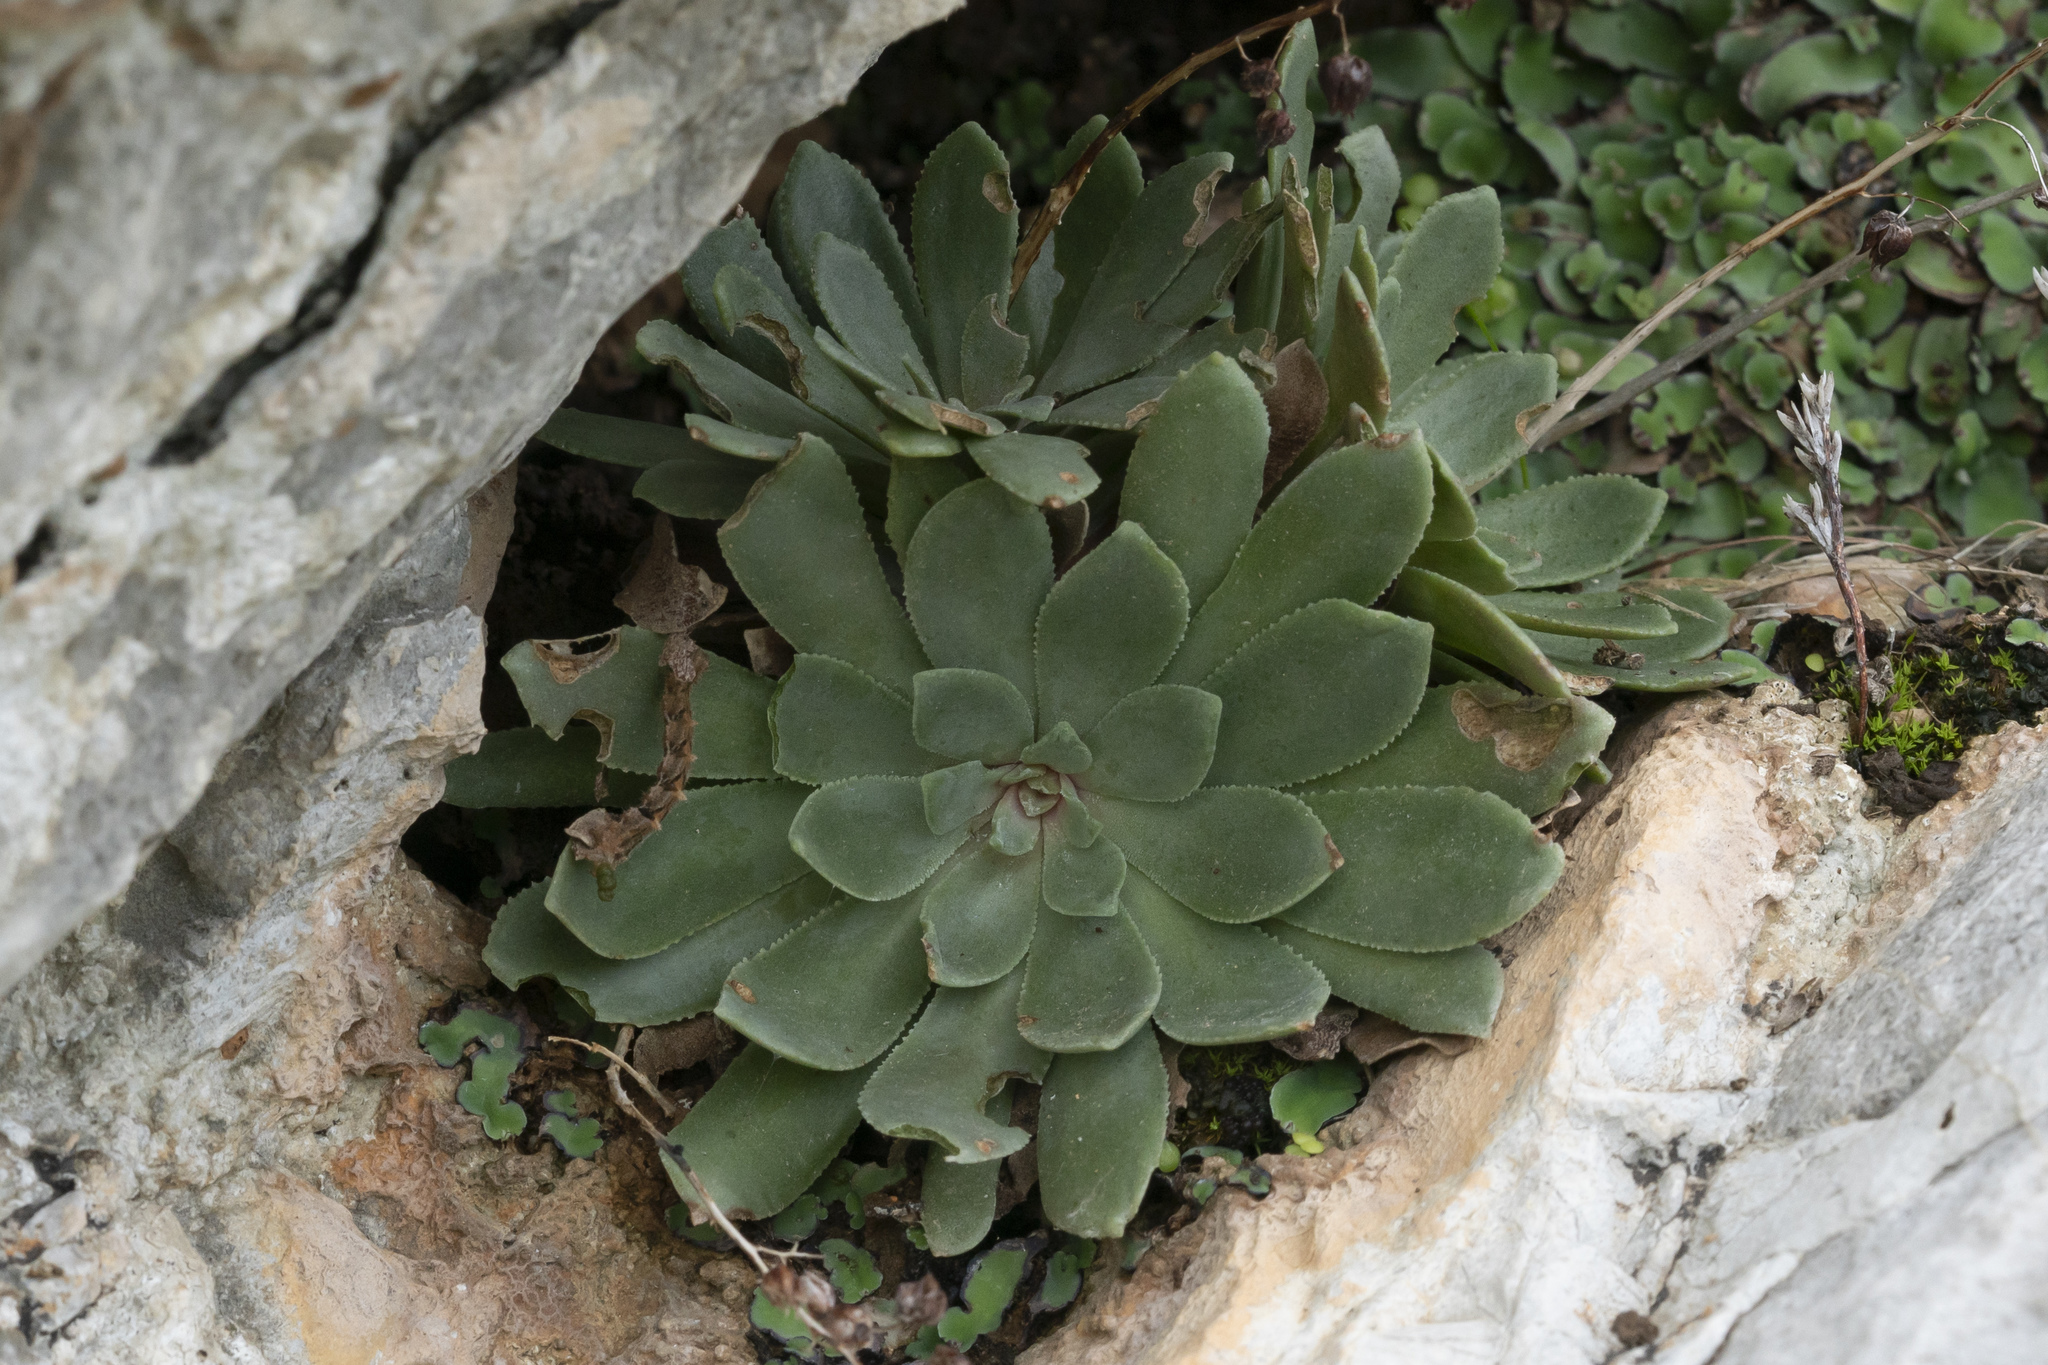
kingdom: Plantae
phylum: Tracheophyta
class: Magnoliopsida
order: Saxifragales
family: Crassulaceae
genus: Rosularia
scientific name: Rosularia serrata
